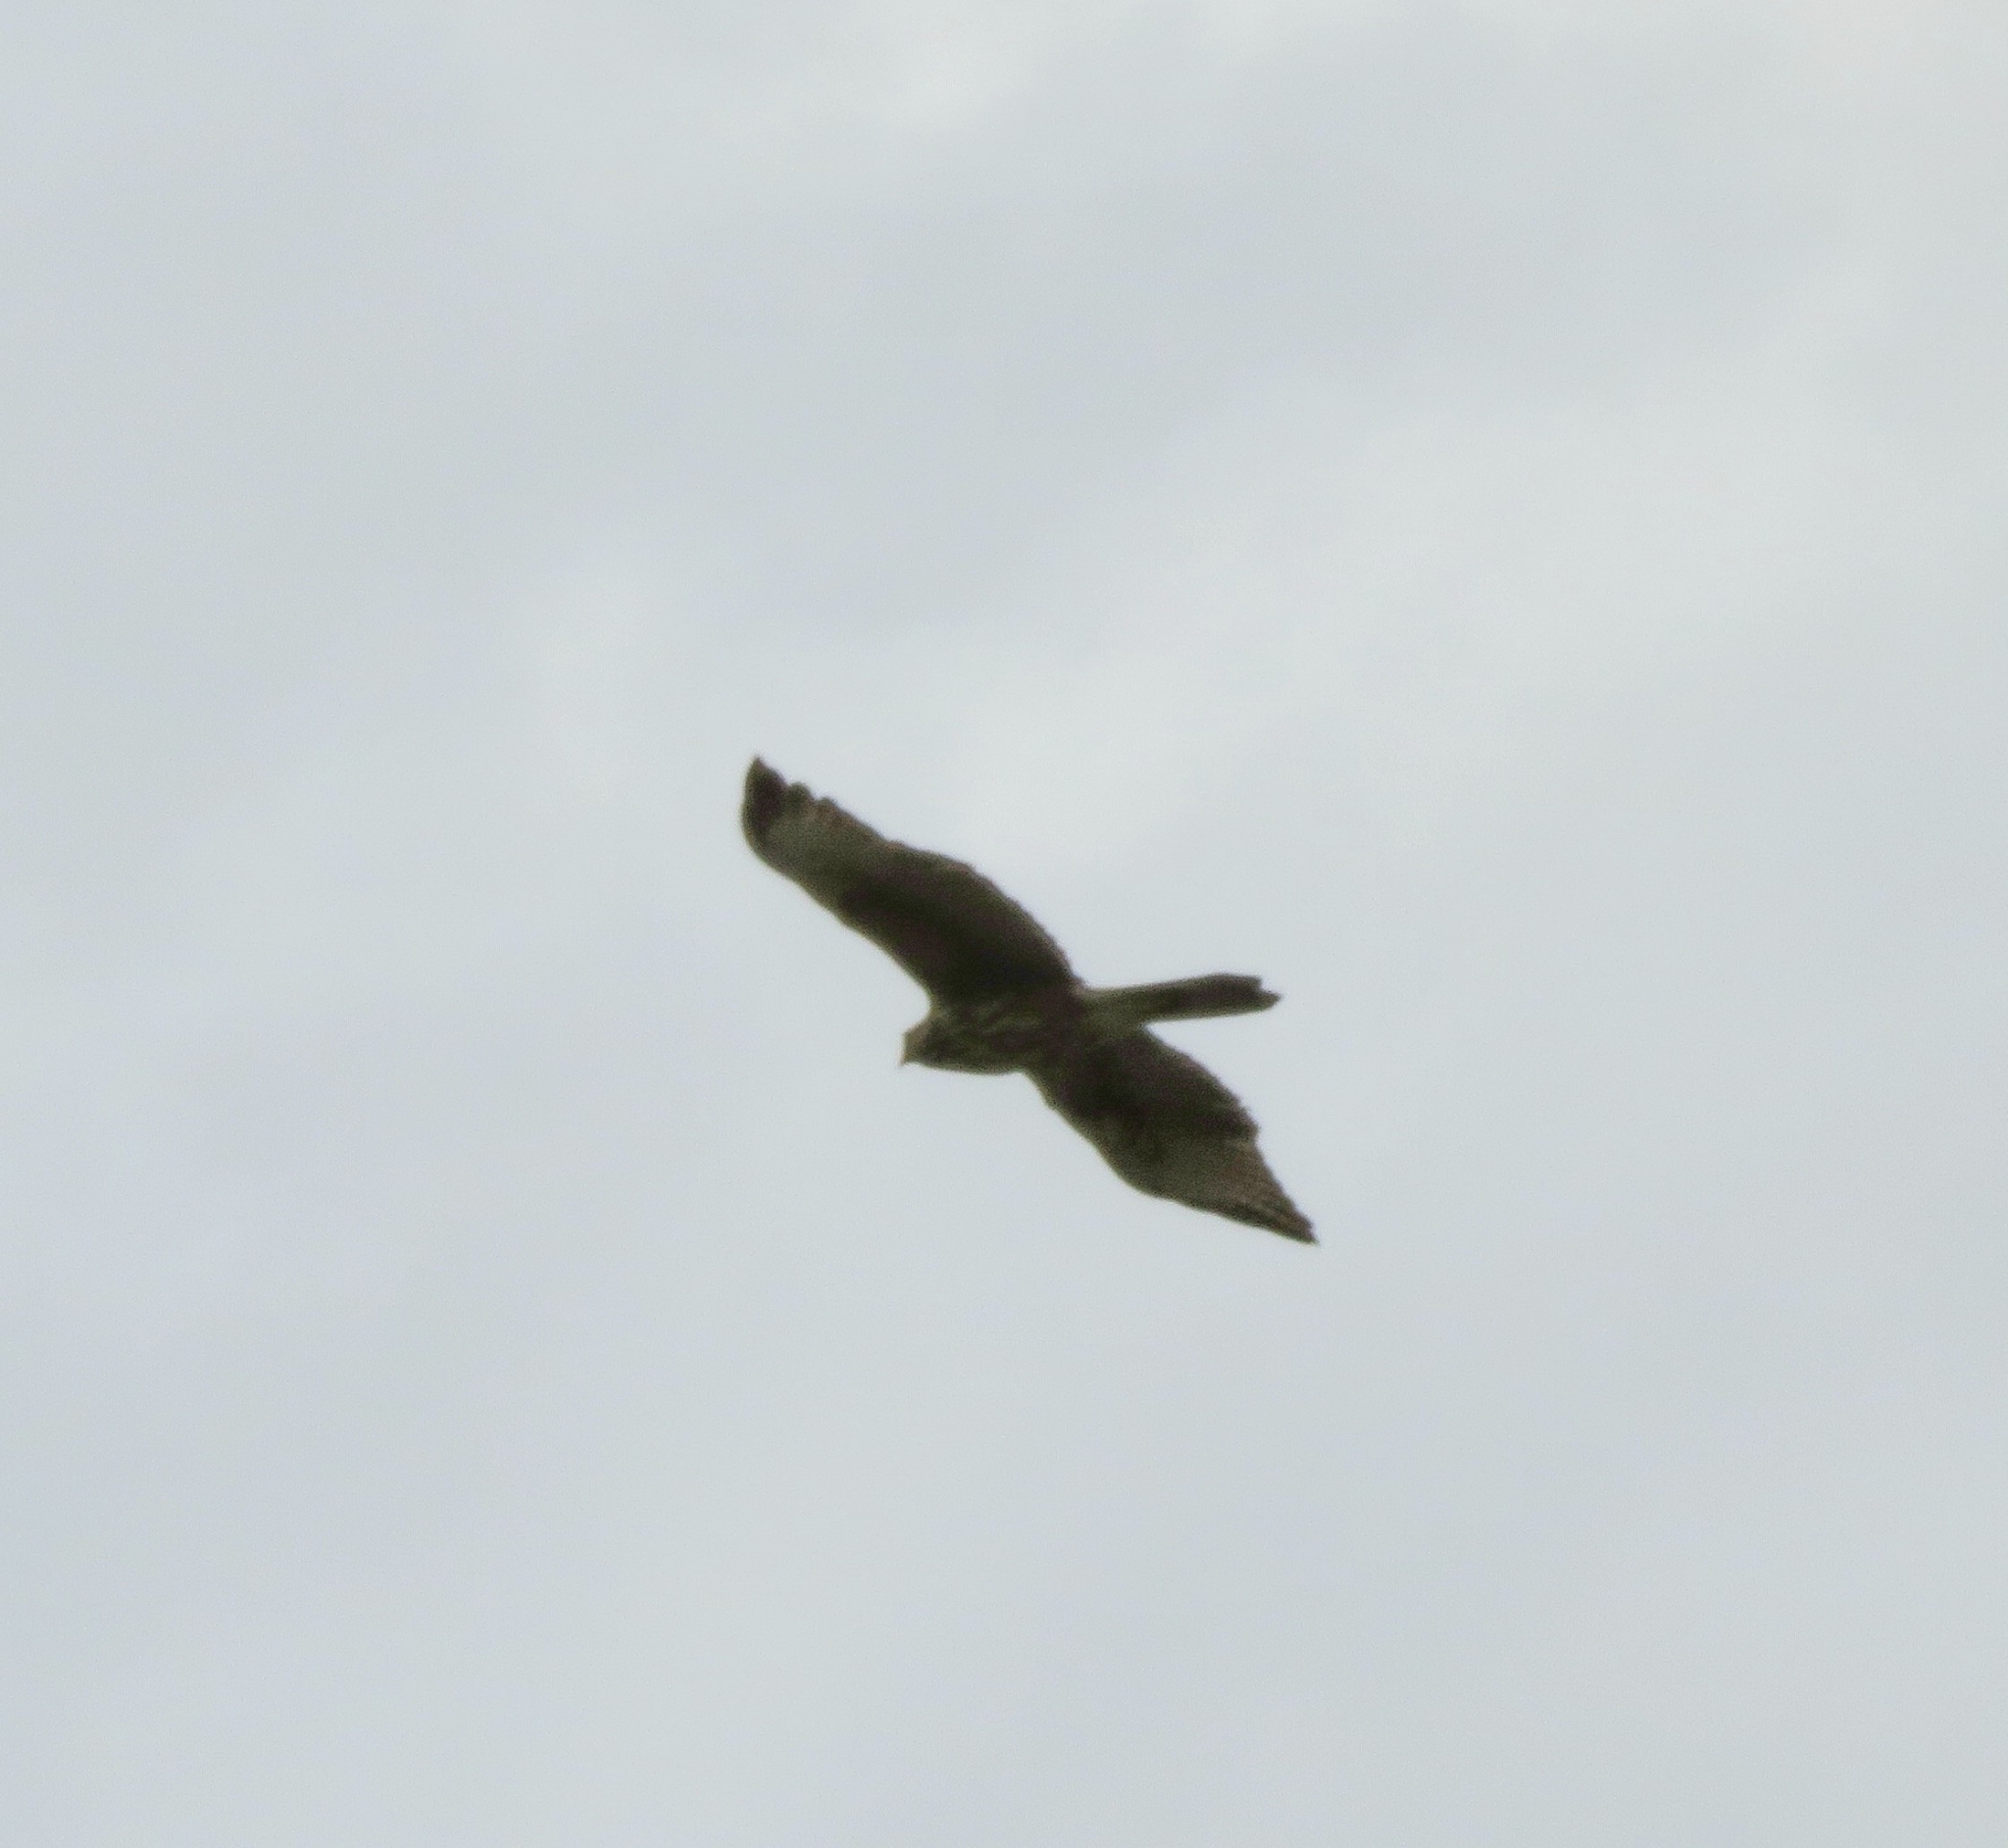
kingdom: Animalia
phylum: Chordata
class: Aves
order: Accipitriformes
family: Accipitridae
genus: Parabuteo
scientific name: Parabuteo unicinctus
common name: Harris's hawk
